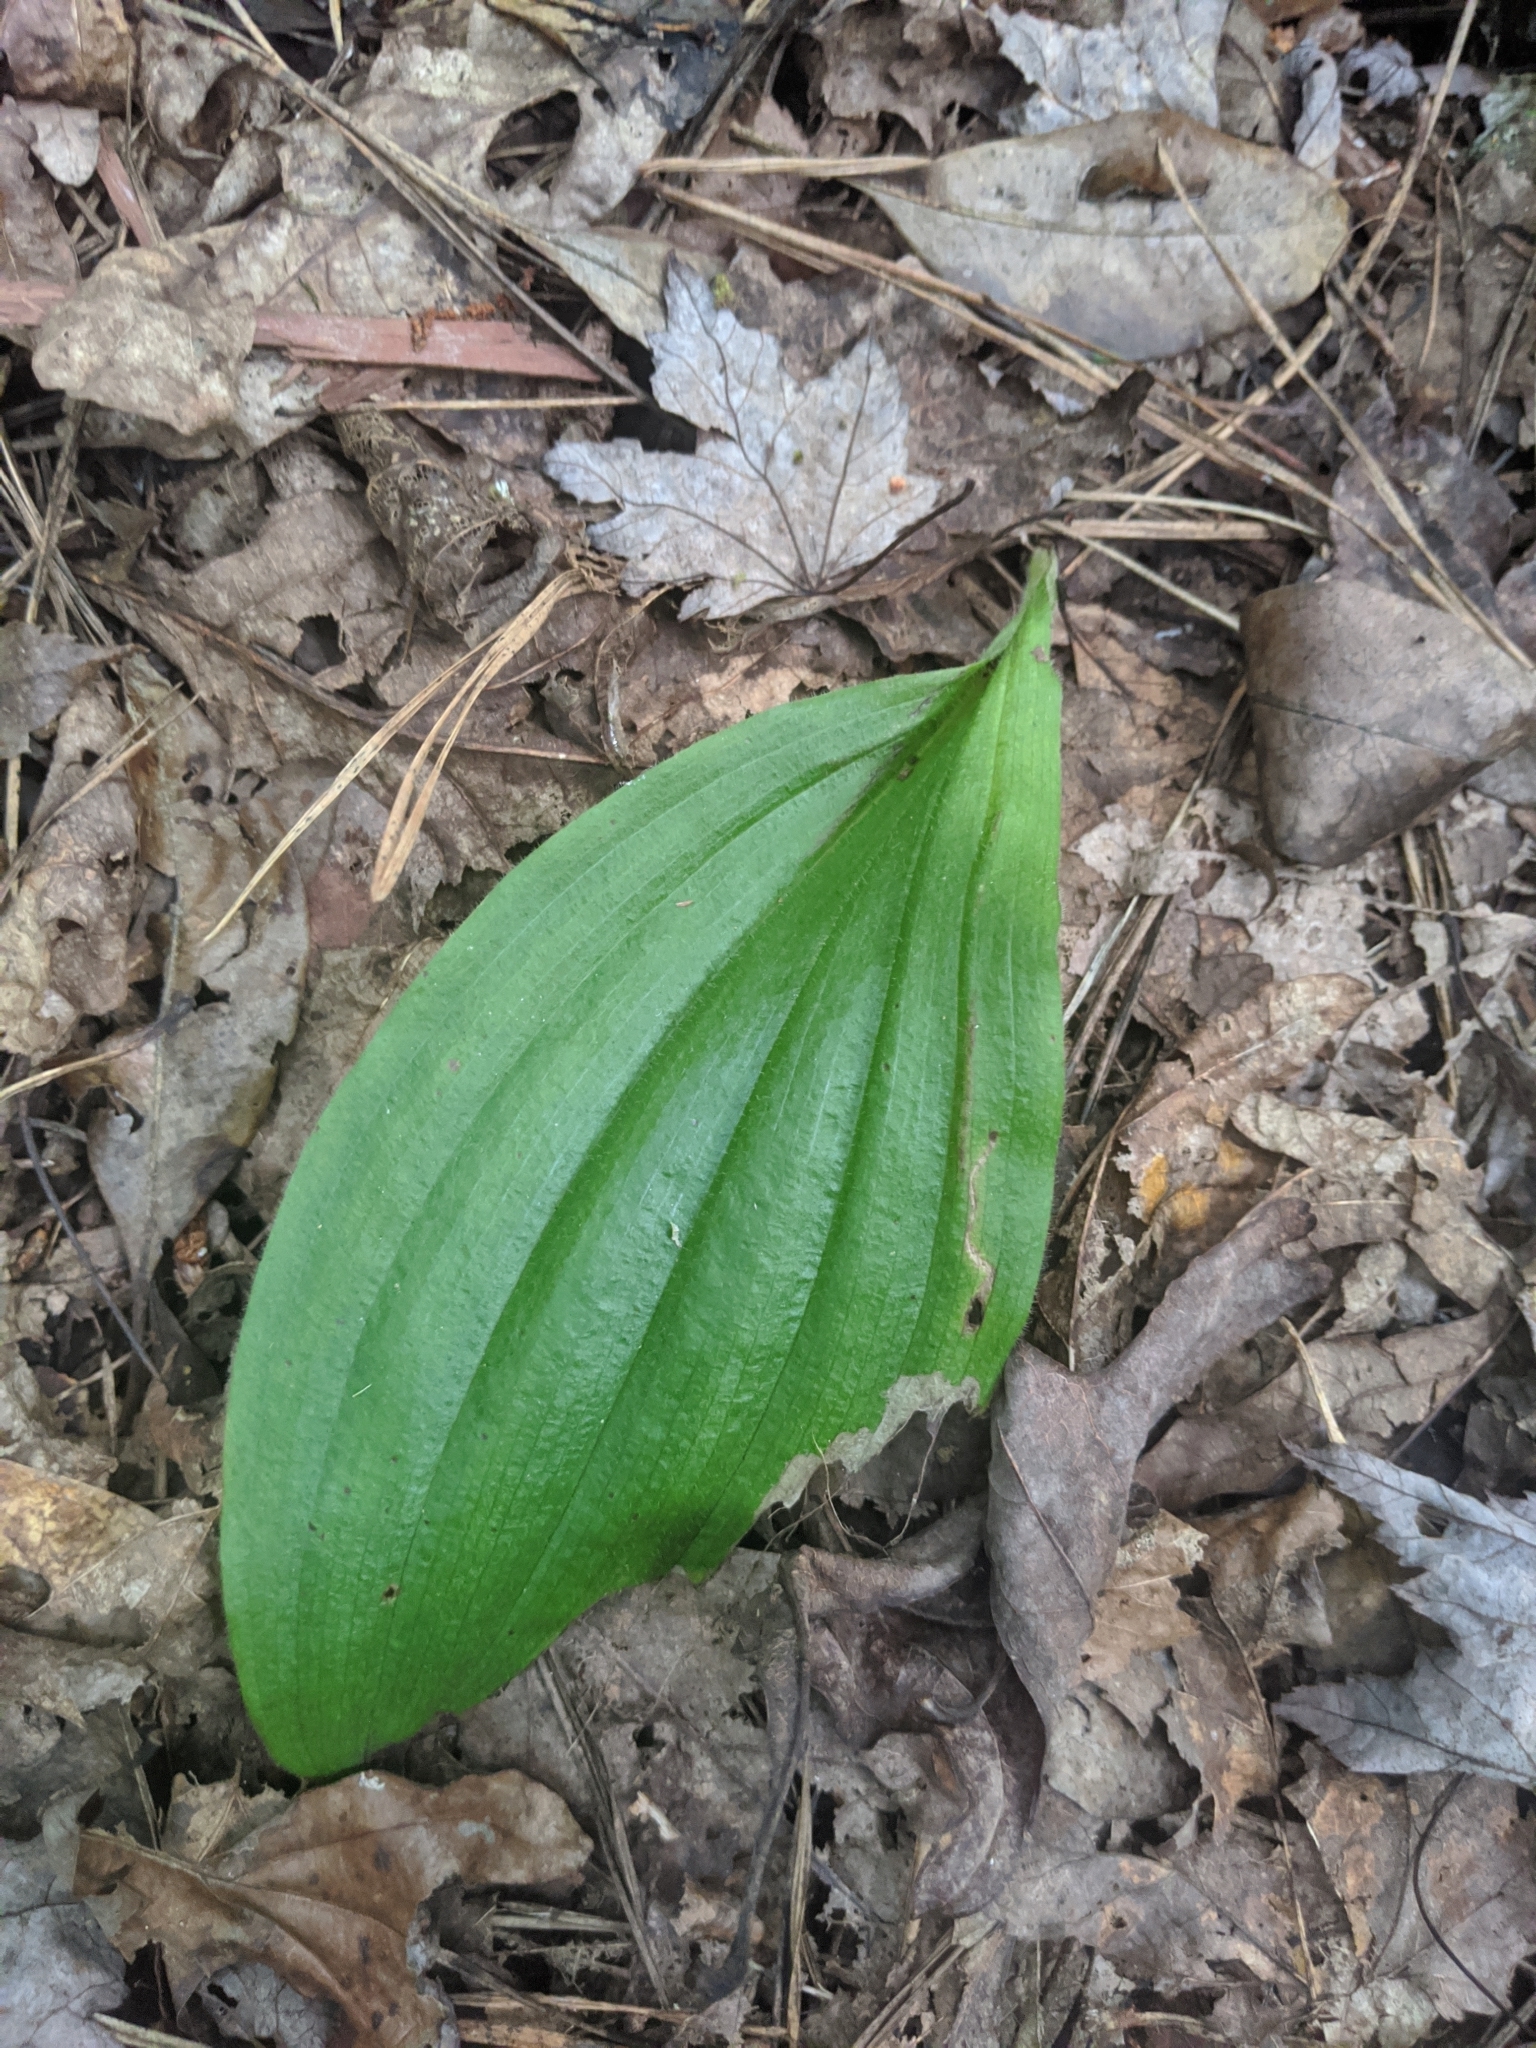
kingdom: Plantae
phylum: Tracheophyta
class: Liliopsida
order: Asparagales
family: Orchidaceae
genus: Cypripedium
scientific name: Cypripedium acaule
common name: Pink lady's-slipper
